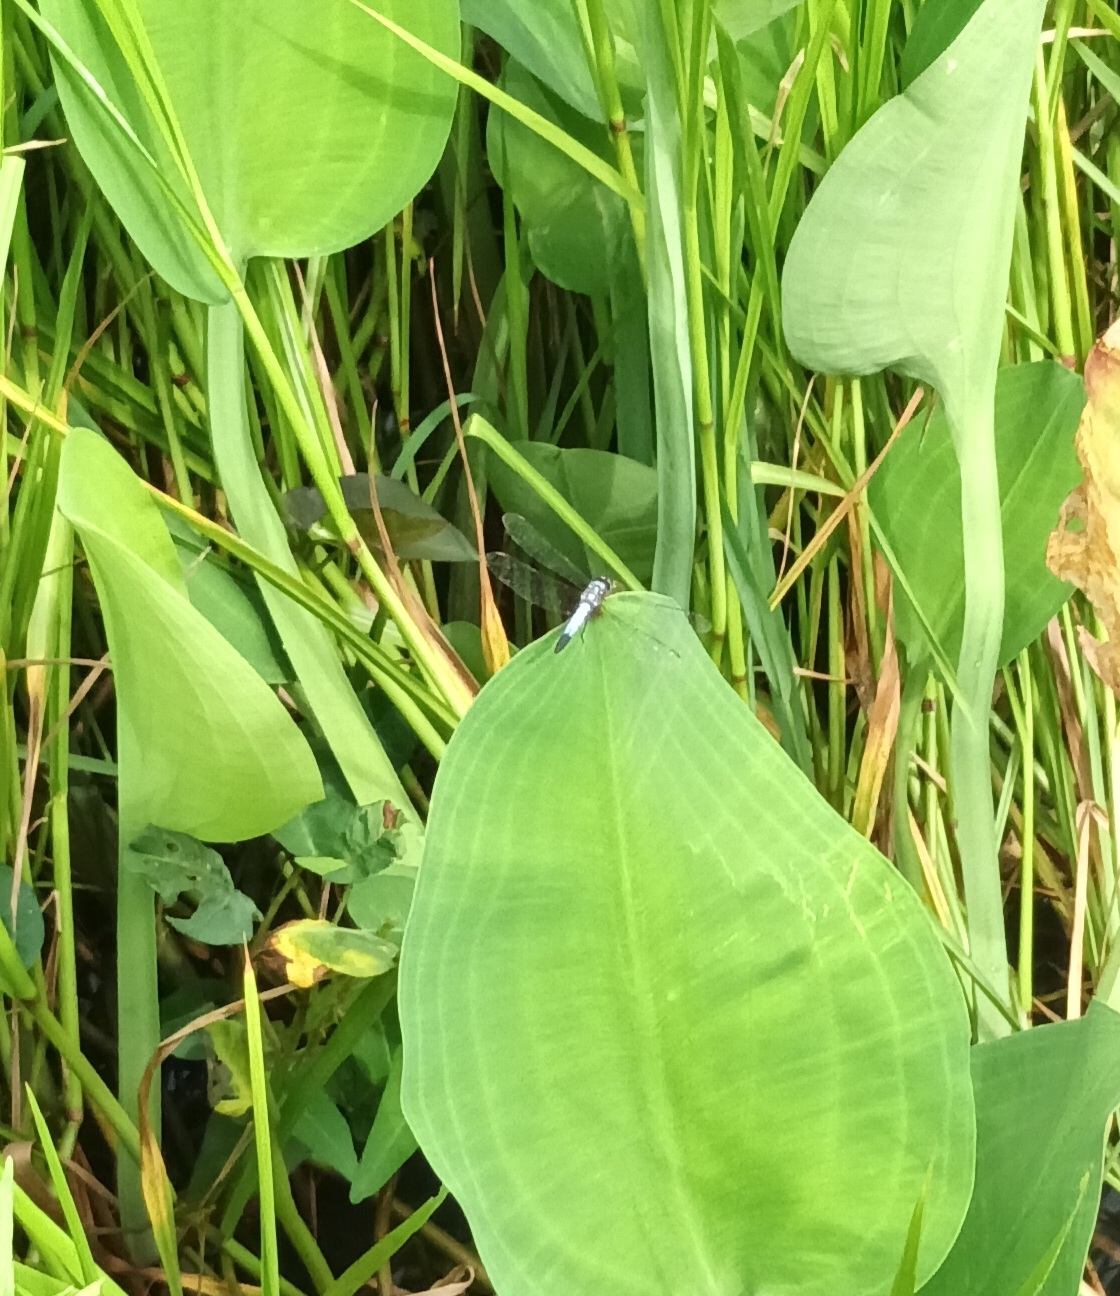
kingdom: Animalia
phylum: Arthropoda
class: Insecta
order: Odonata
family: Libellulidae
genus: Brachydiplax
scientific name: Brachydiplax chalybea
